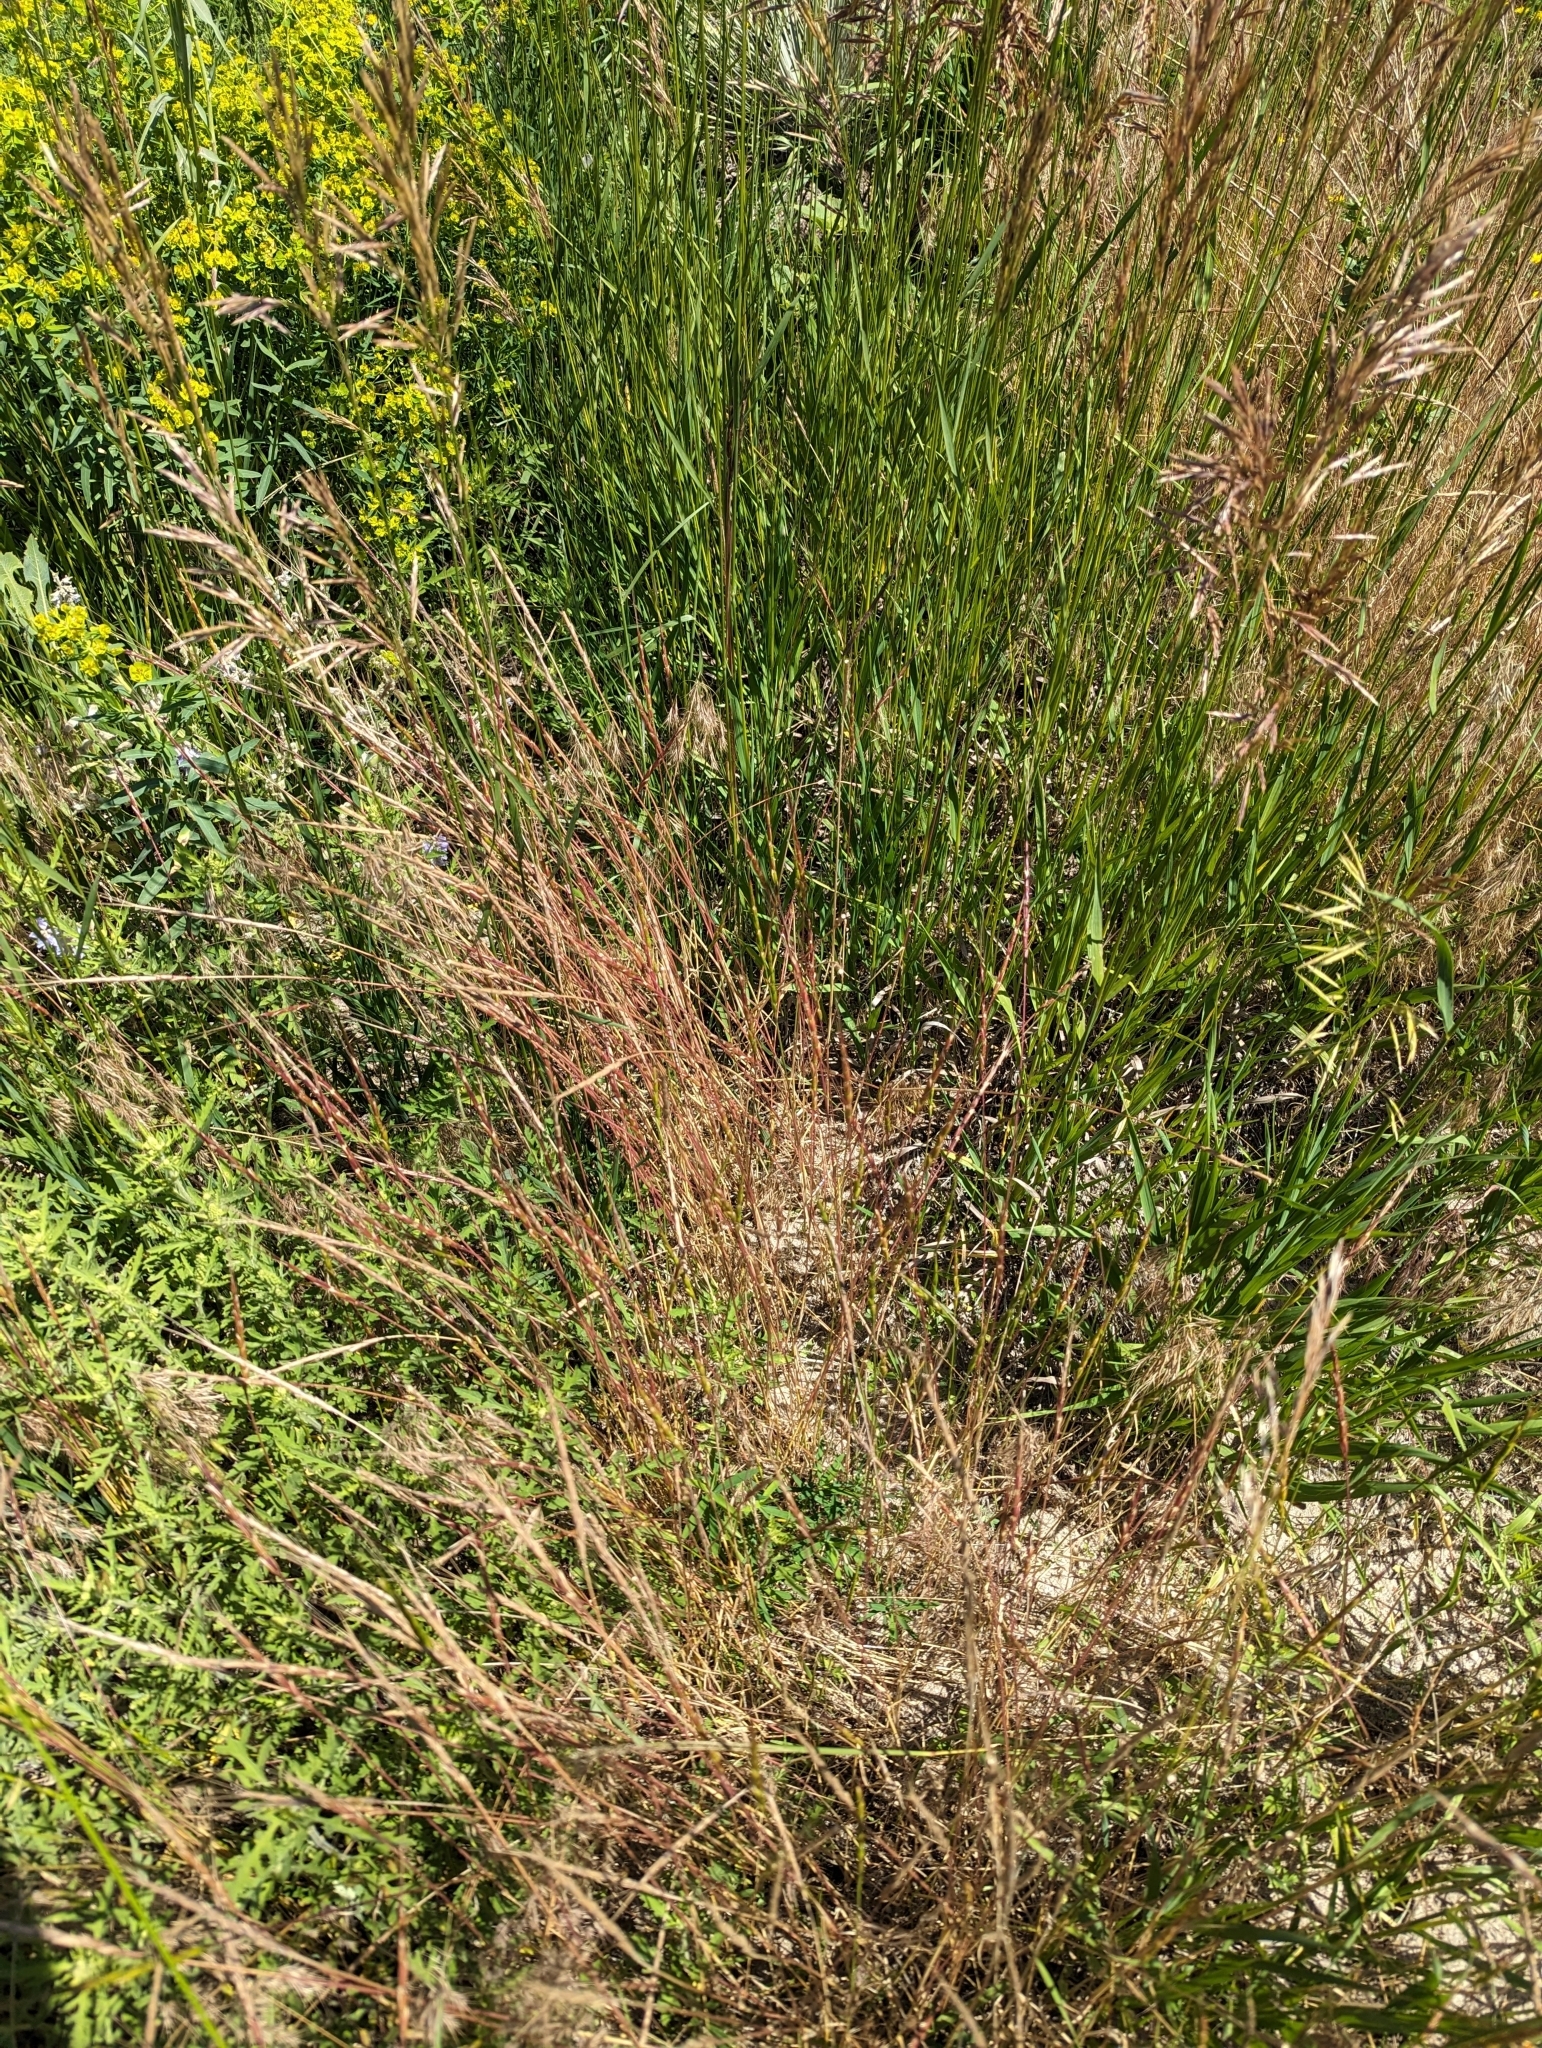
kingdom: Plantae
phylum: Tracheophyta
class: Liliopsida
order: Poales
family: Poaceae
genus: Aegilops
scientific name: Aegilops cylindrica
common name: Jointed goatgrass
